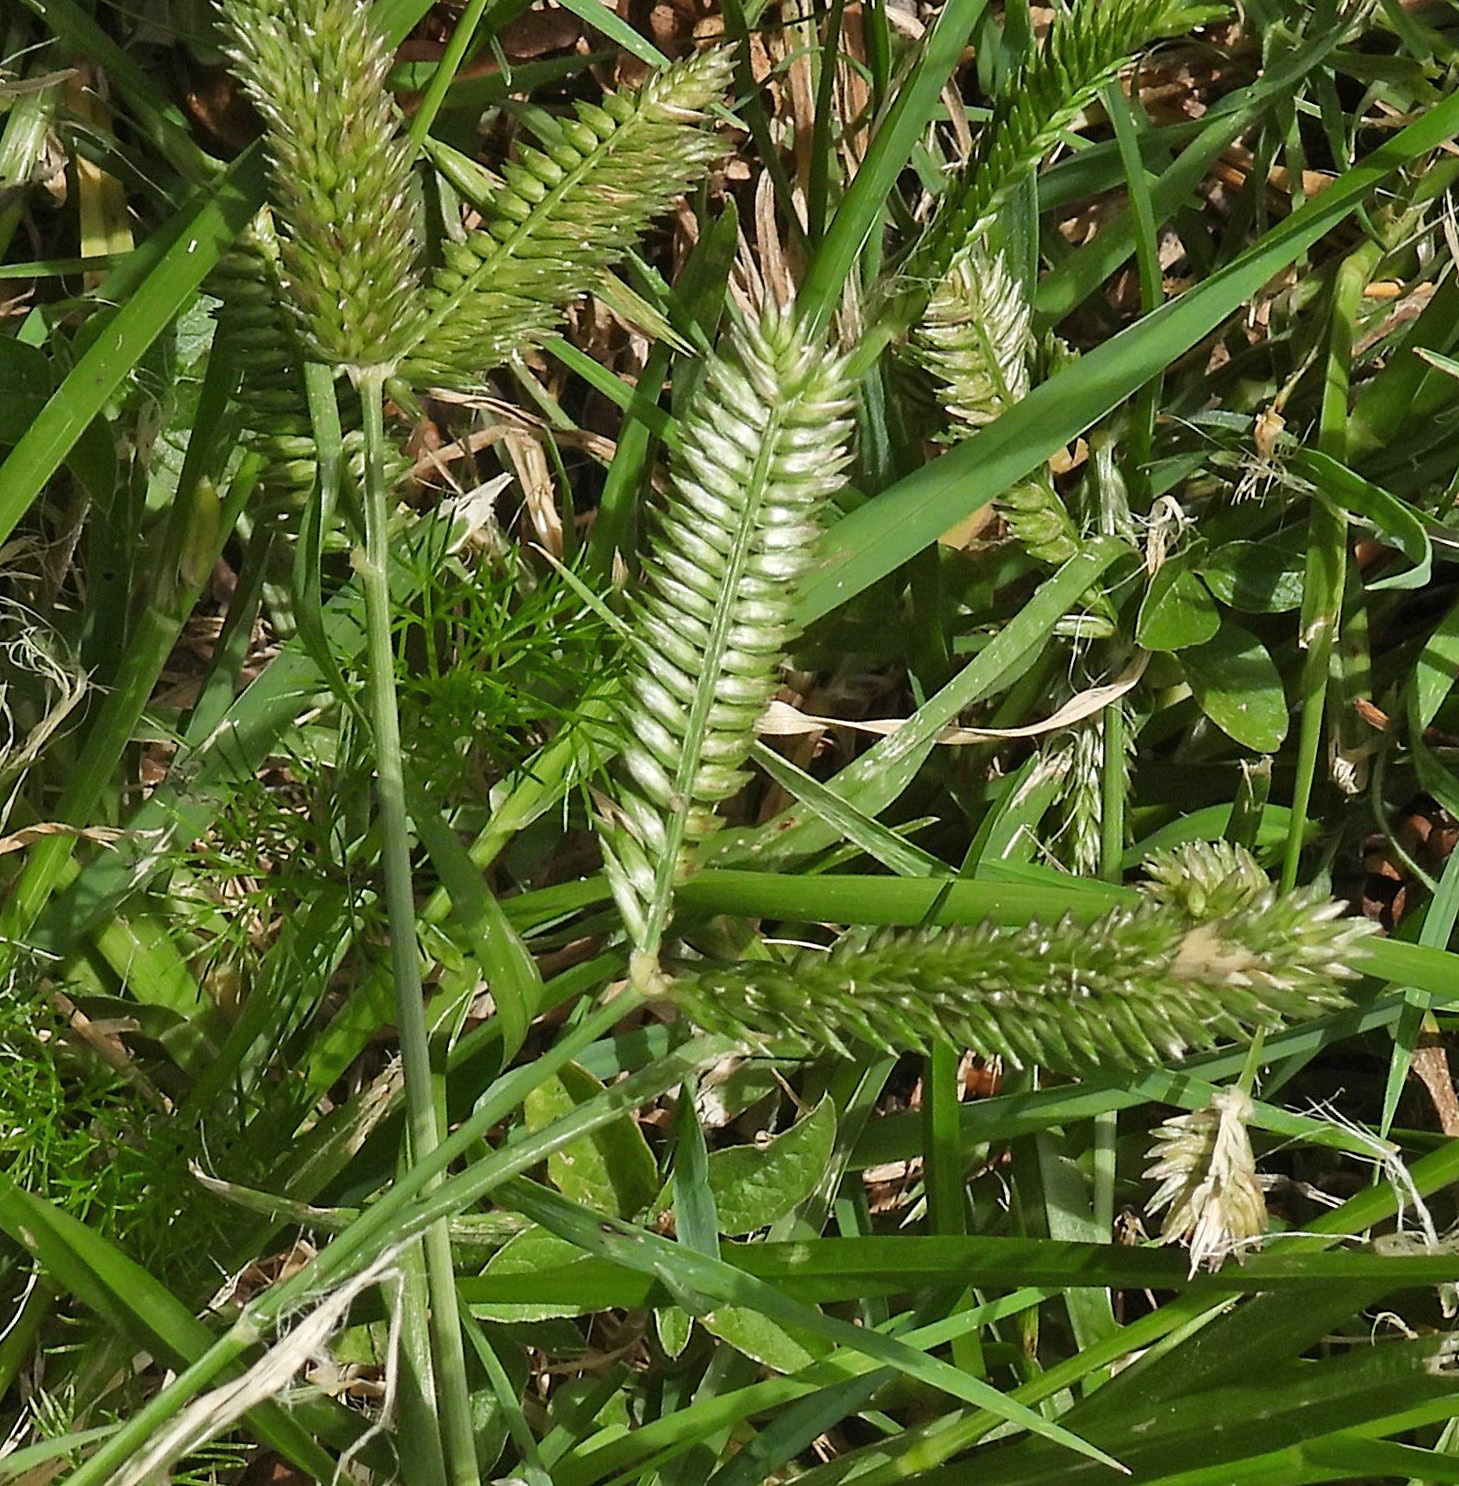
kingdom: Plantae
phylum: Tracheophyta
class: Liliopsida
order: Poales
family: Poaceae
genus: Eleusine
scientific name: Eleusine tristachya
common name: American yard-grass
